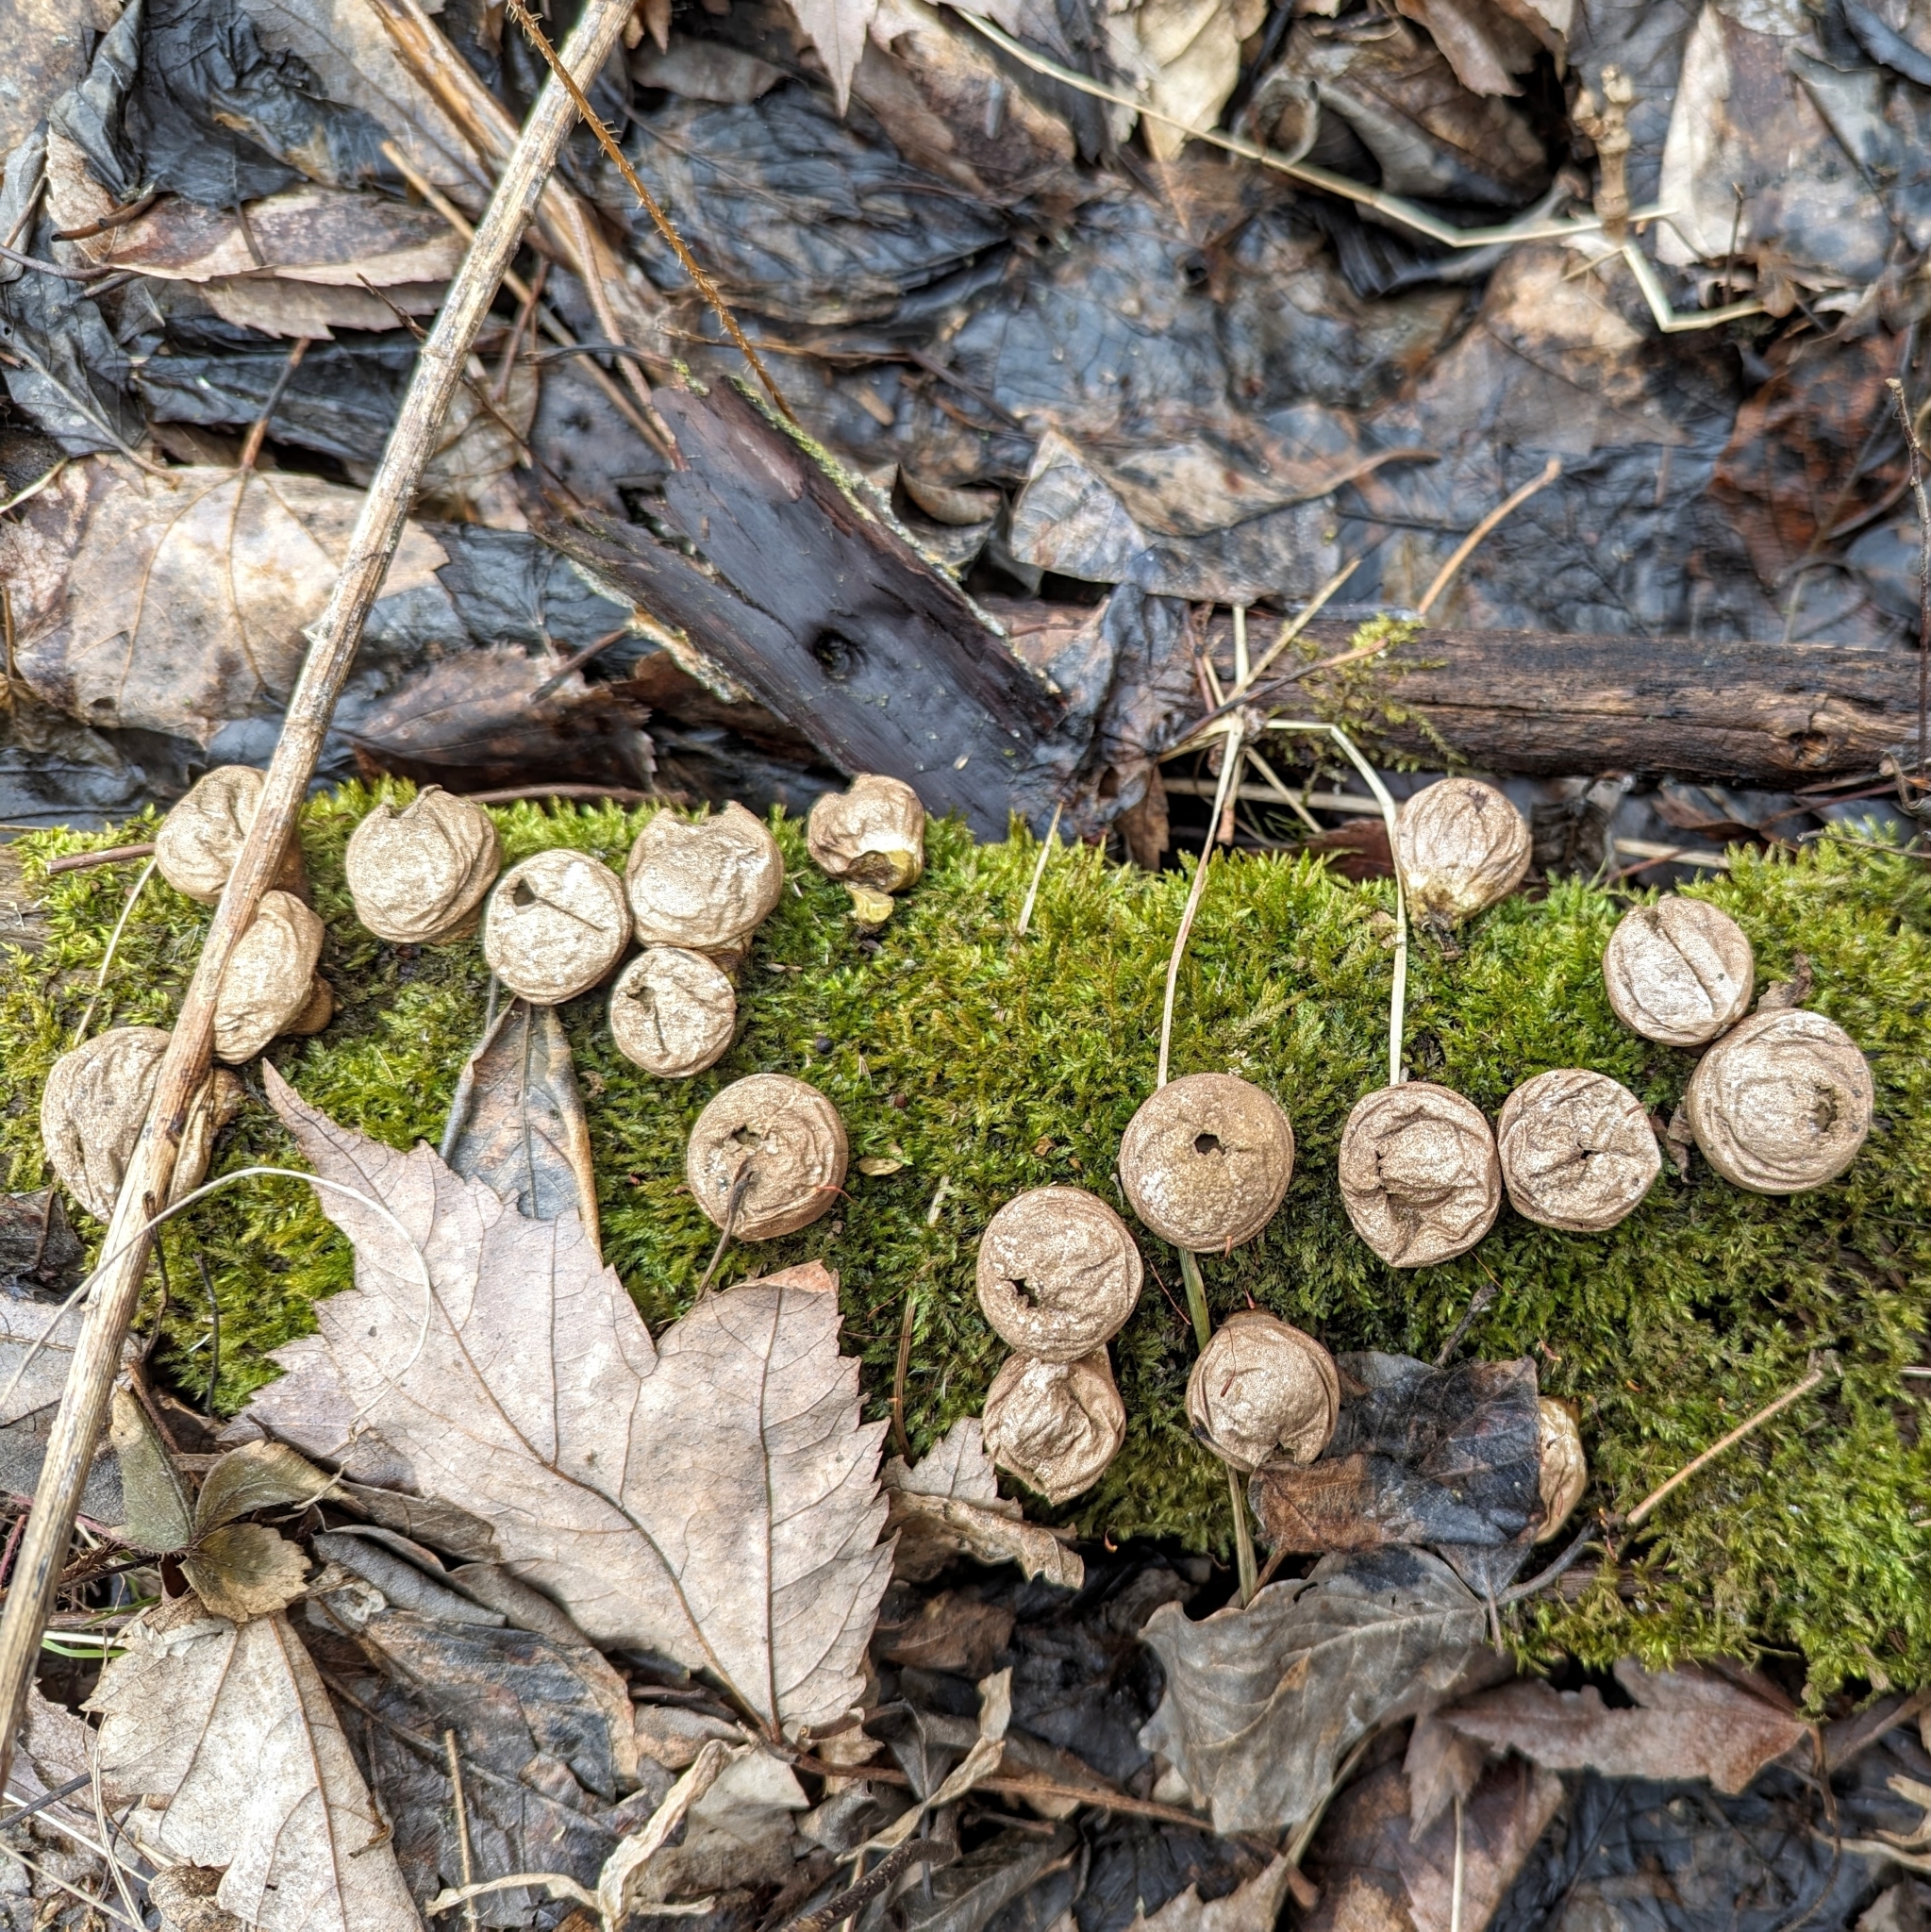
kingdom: Fungi
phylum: Basidiomycota
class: Agaricomycetes
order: Agaricales
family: Lycoperdaceae
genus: Apioperdon
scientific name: Apioperdon pyriforme
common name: Pear-shaped puffball
